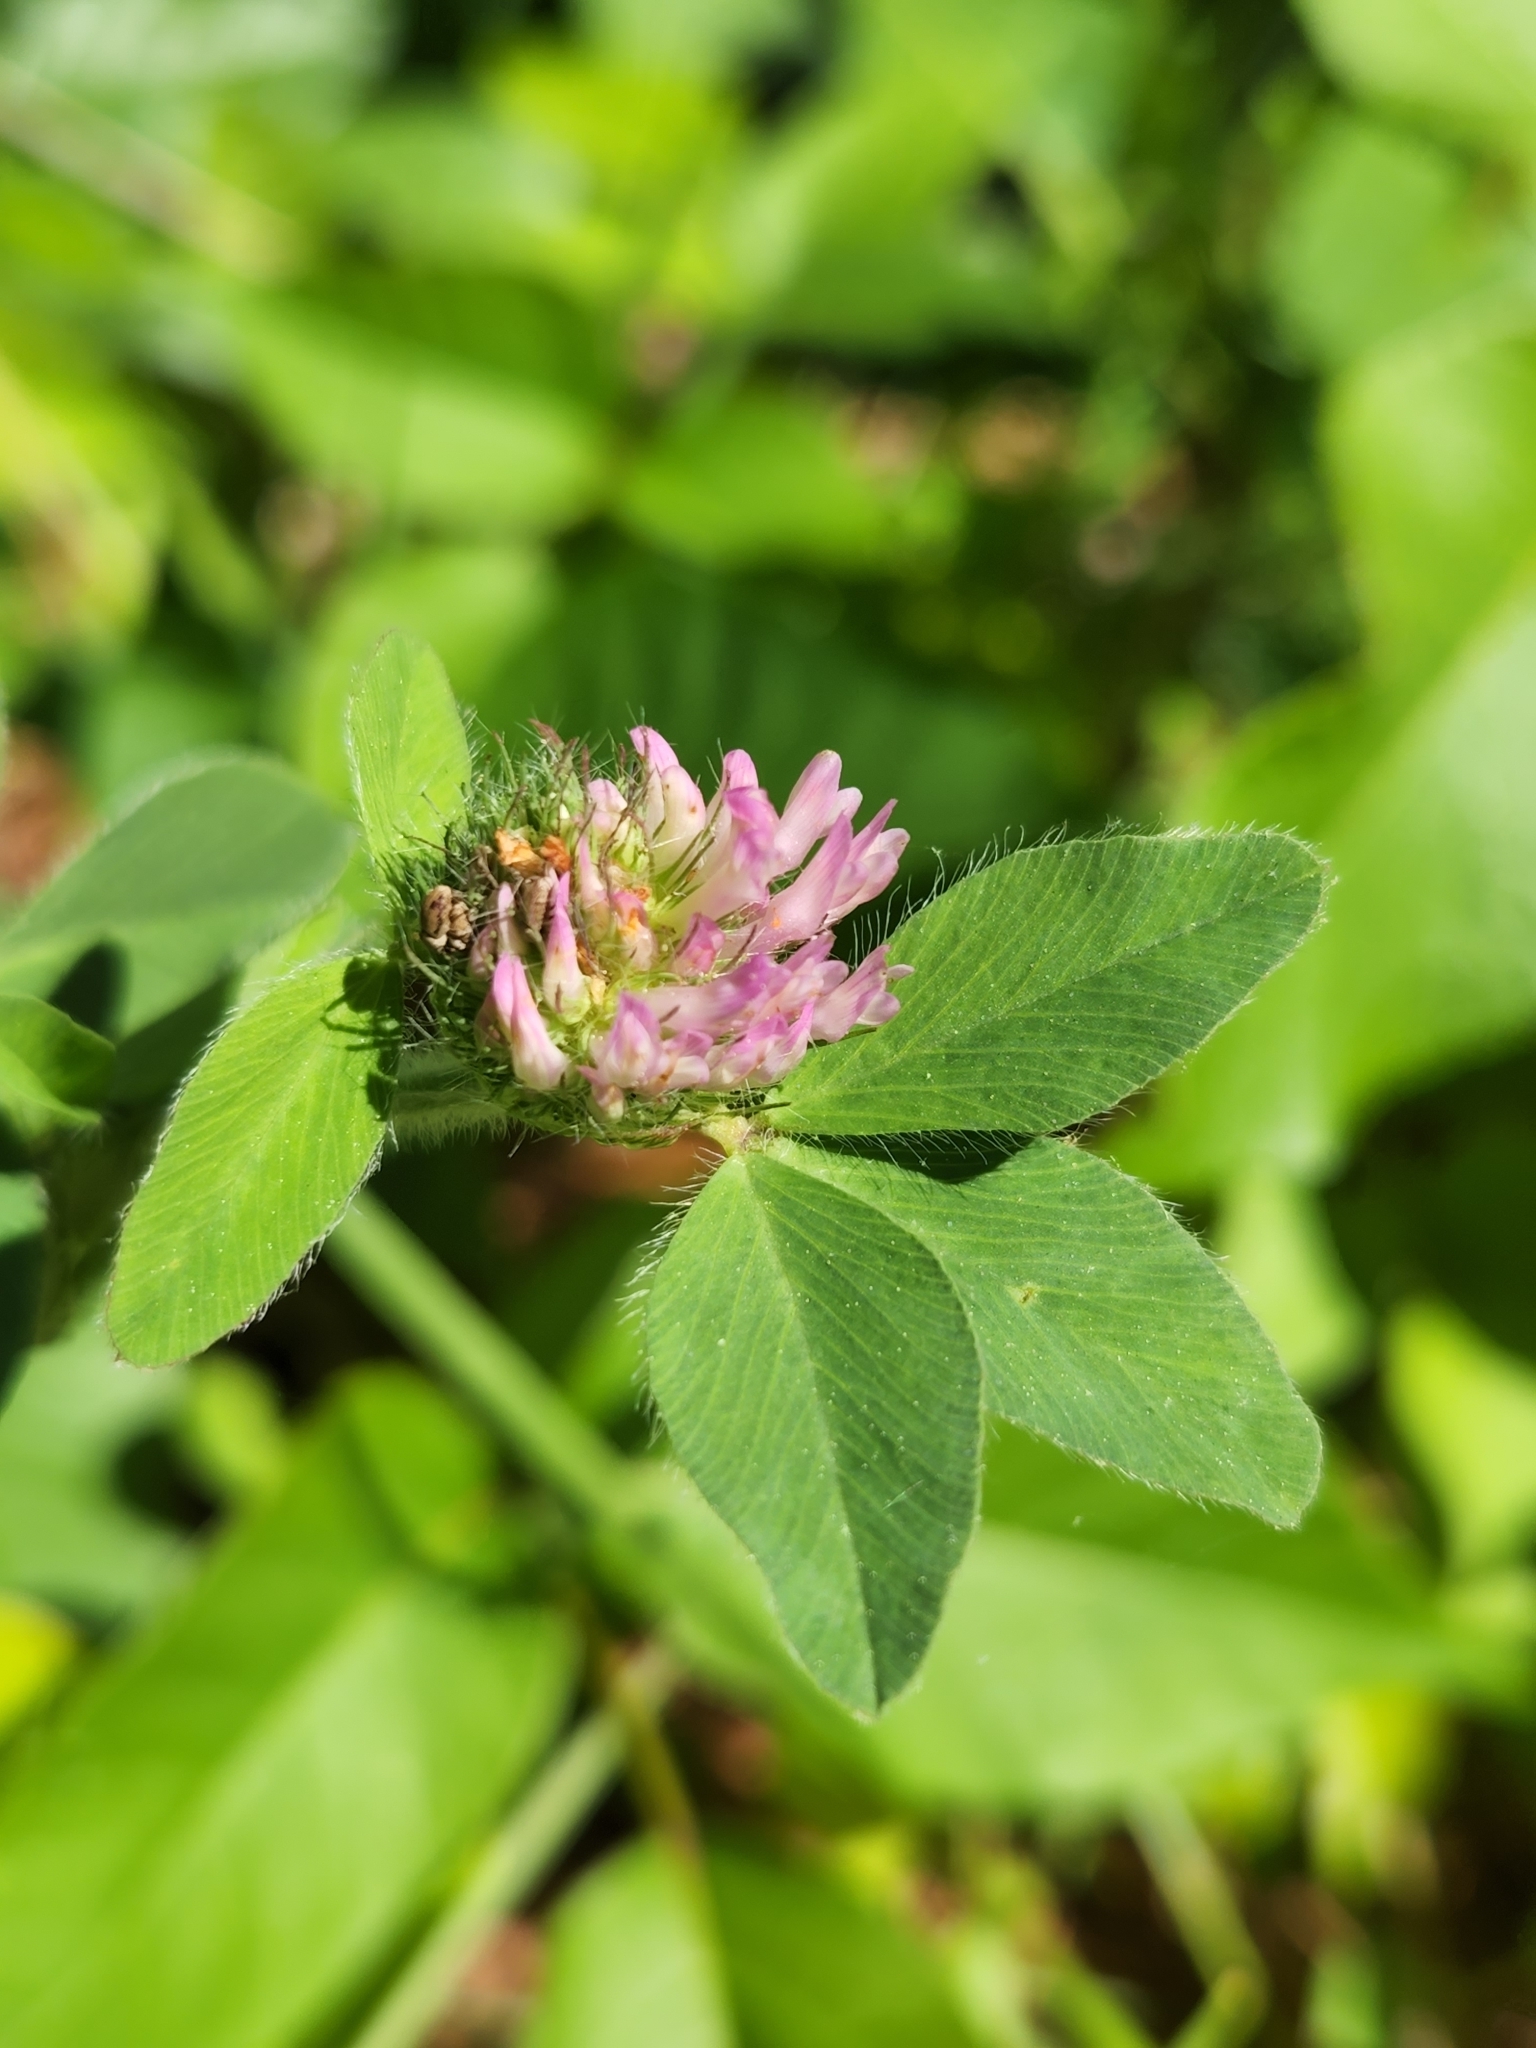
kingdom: Plantae
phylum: Tracheophyta
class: Magnoliopsida
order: Fabales
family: Fabaceae
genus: Trifolium
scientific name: Trifolium pratense
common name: Red clover
